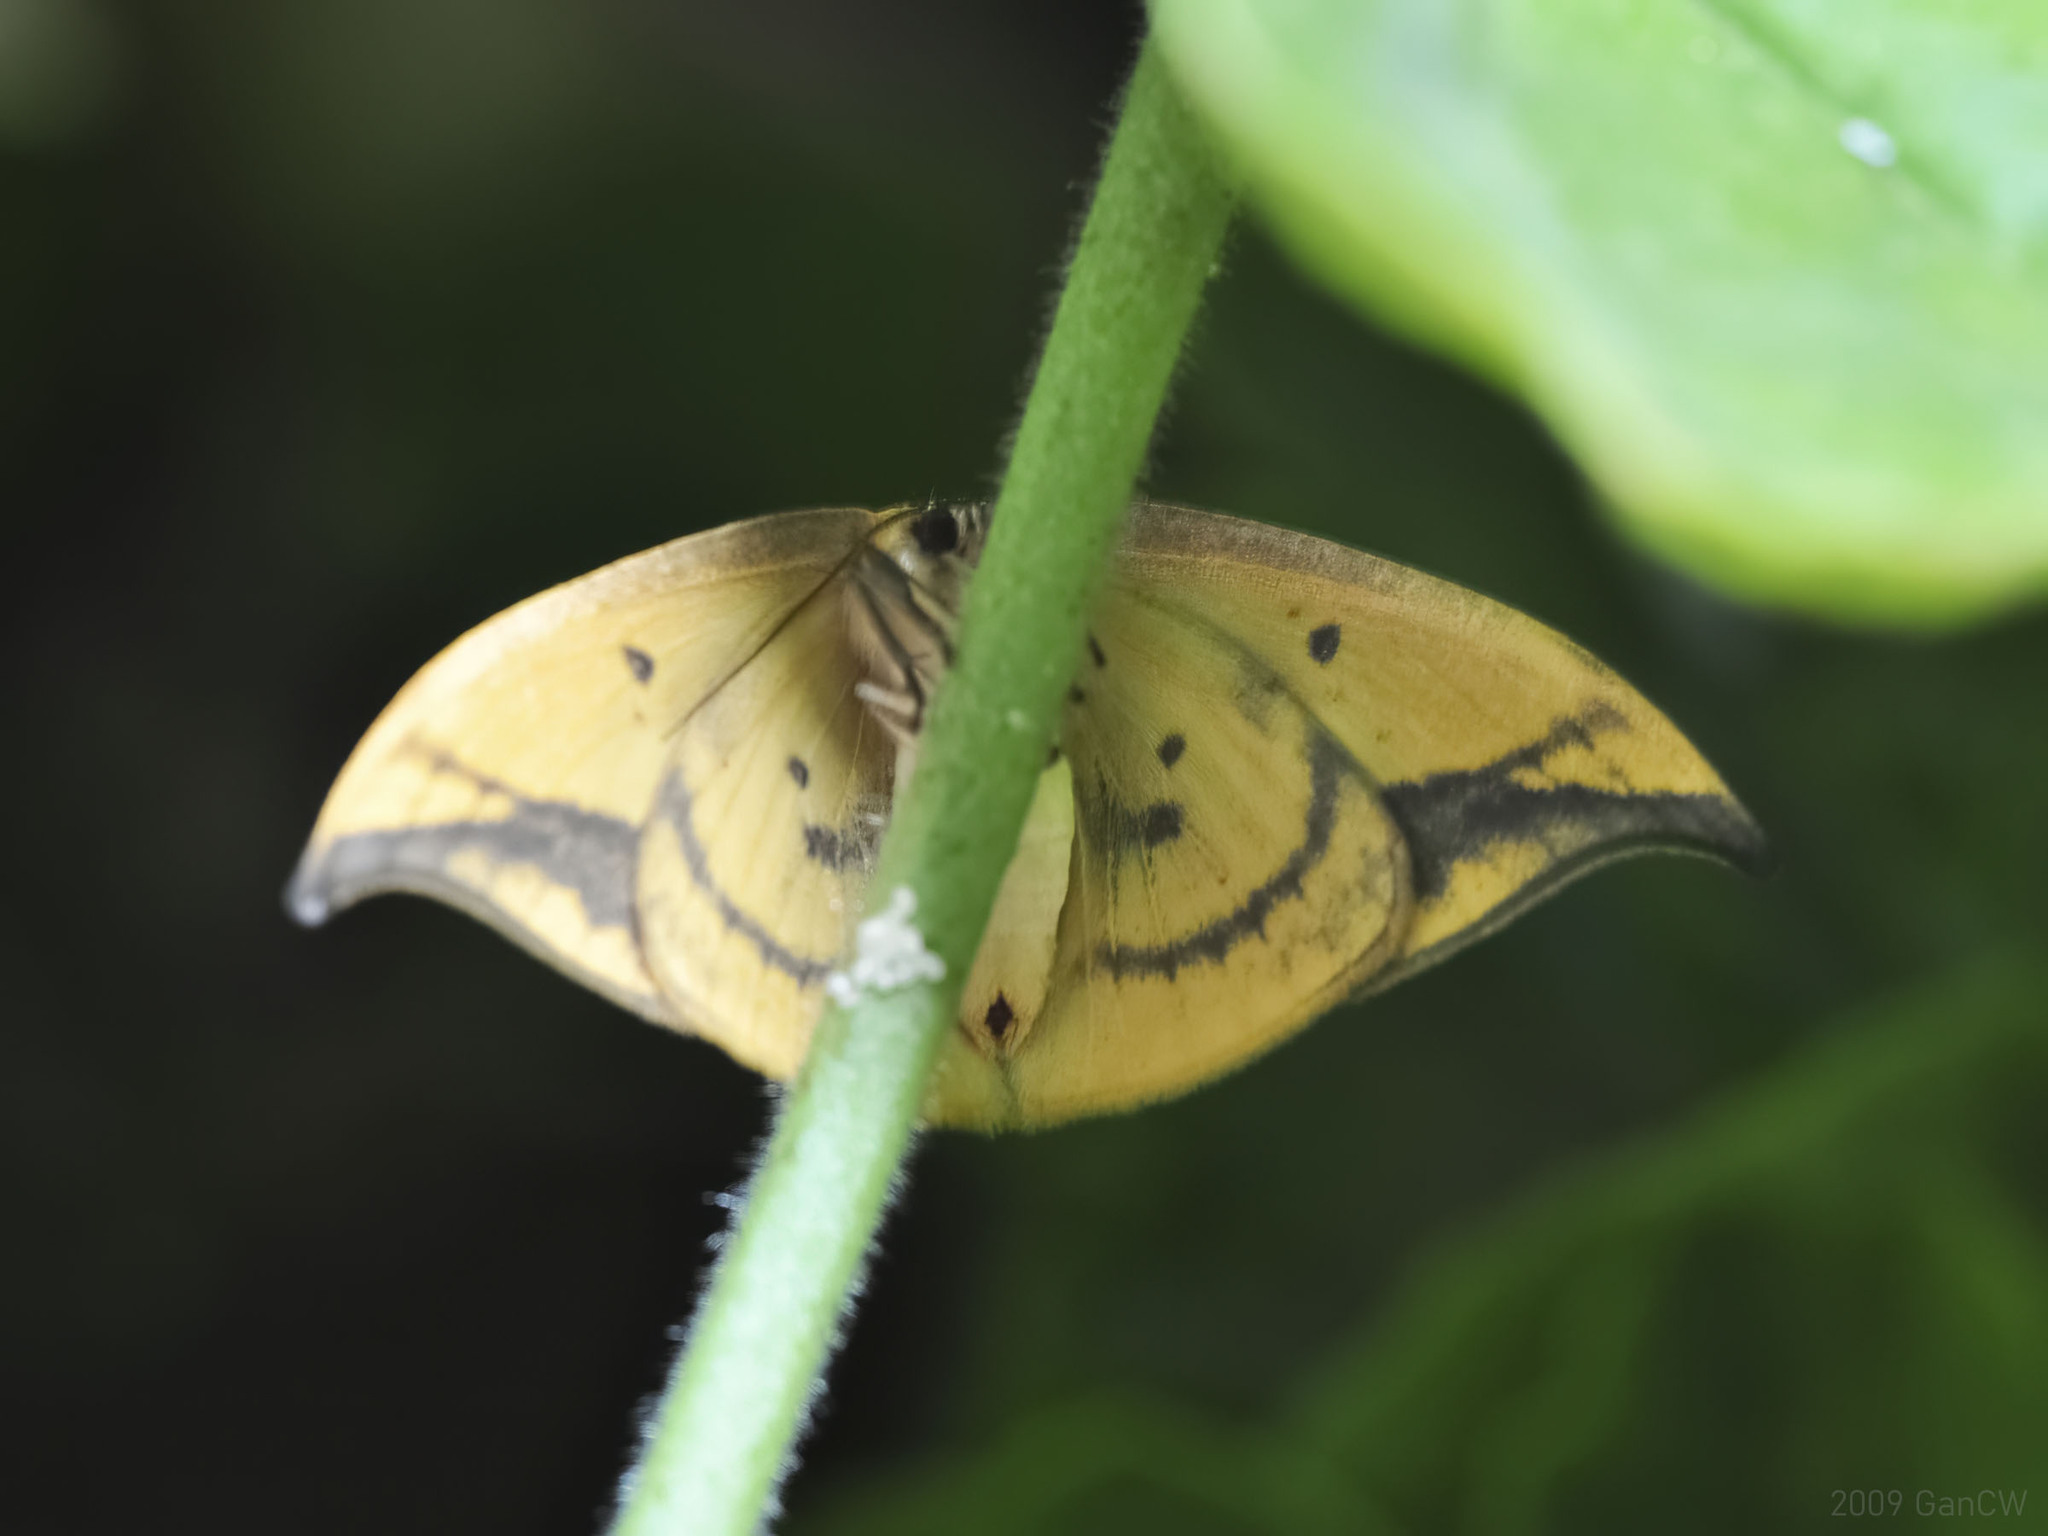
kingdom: Animalia
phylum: Arthropoda
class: Insecta
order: Lepidoptera
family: Drepanidae
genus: Agnidra
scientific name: Agnidra fuscilinea
